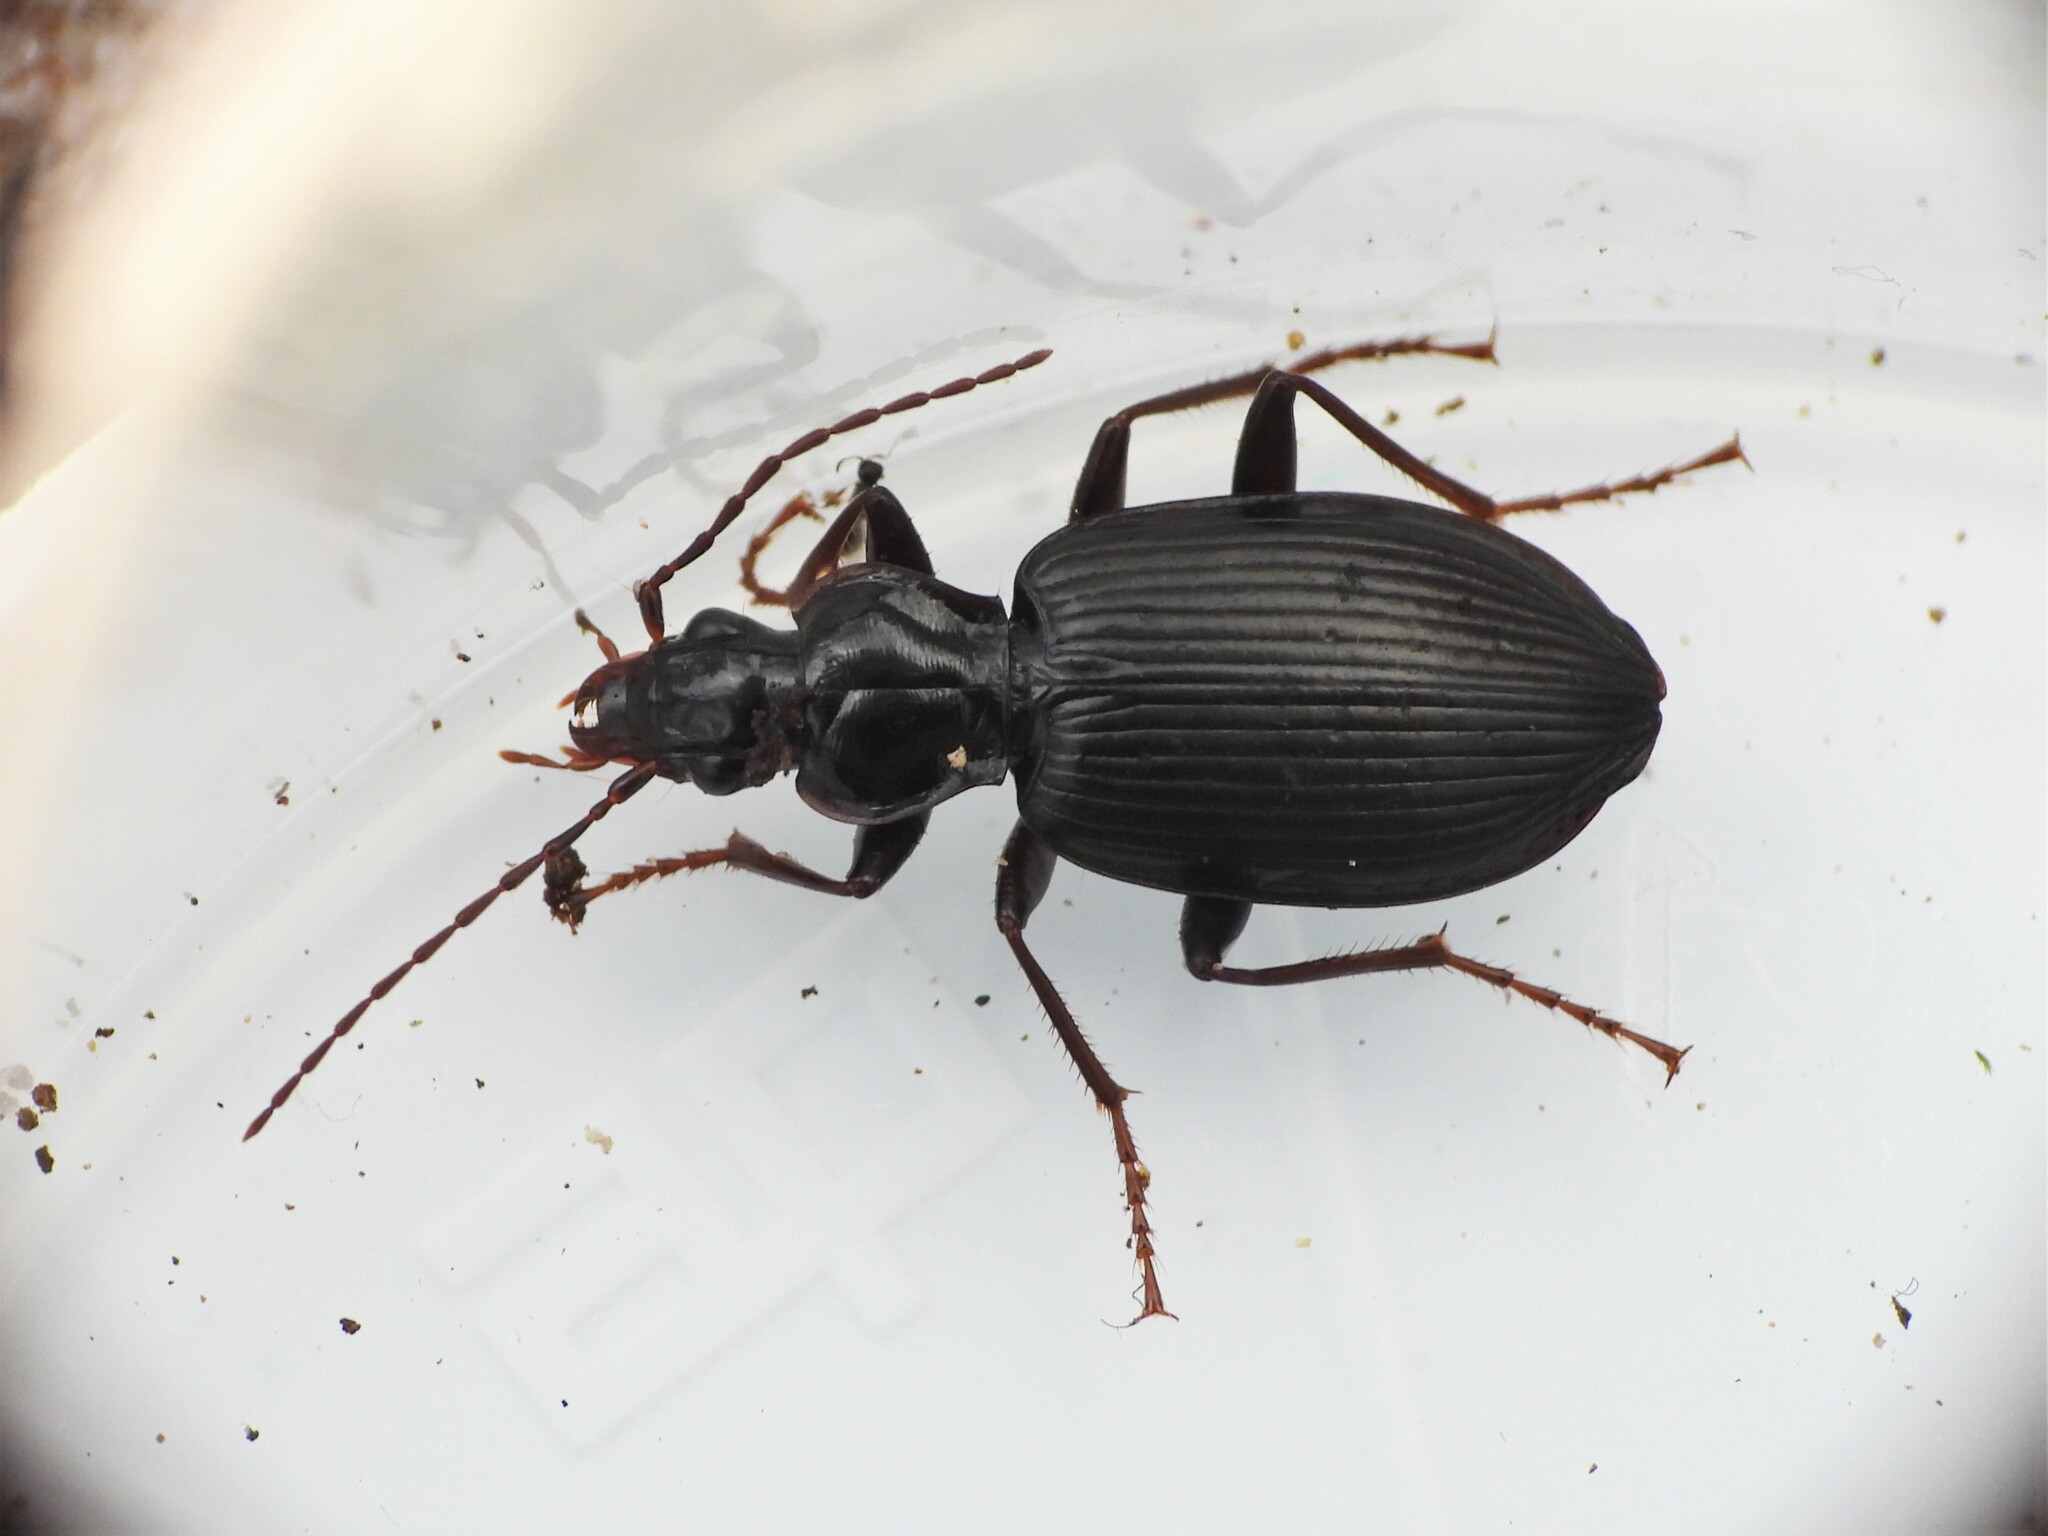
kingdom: Animalia
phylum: Arthropoda
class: Insecta
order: Coleoptera
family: Carabidae
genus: Platynus
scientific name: Platynus assimilis
